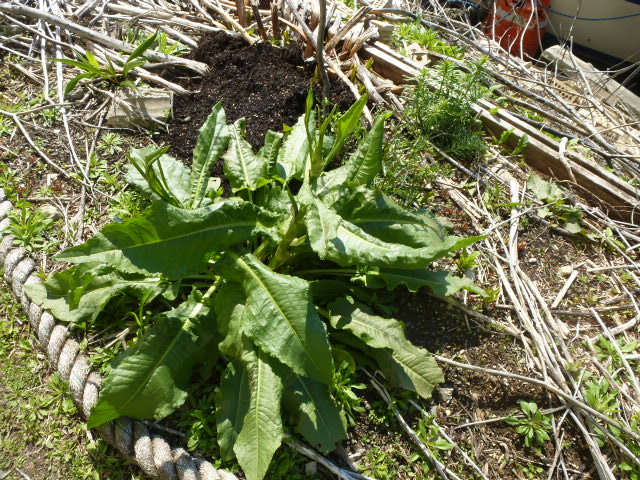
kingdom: Plantae
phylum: Tracheophyta
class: Magnoliopsida
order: Caryophyllales
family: Polygonaceae
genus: Rumex
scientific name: Rumex crispus
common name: Curled dock
